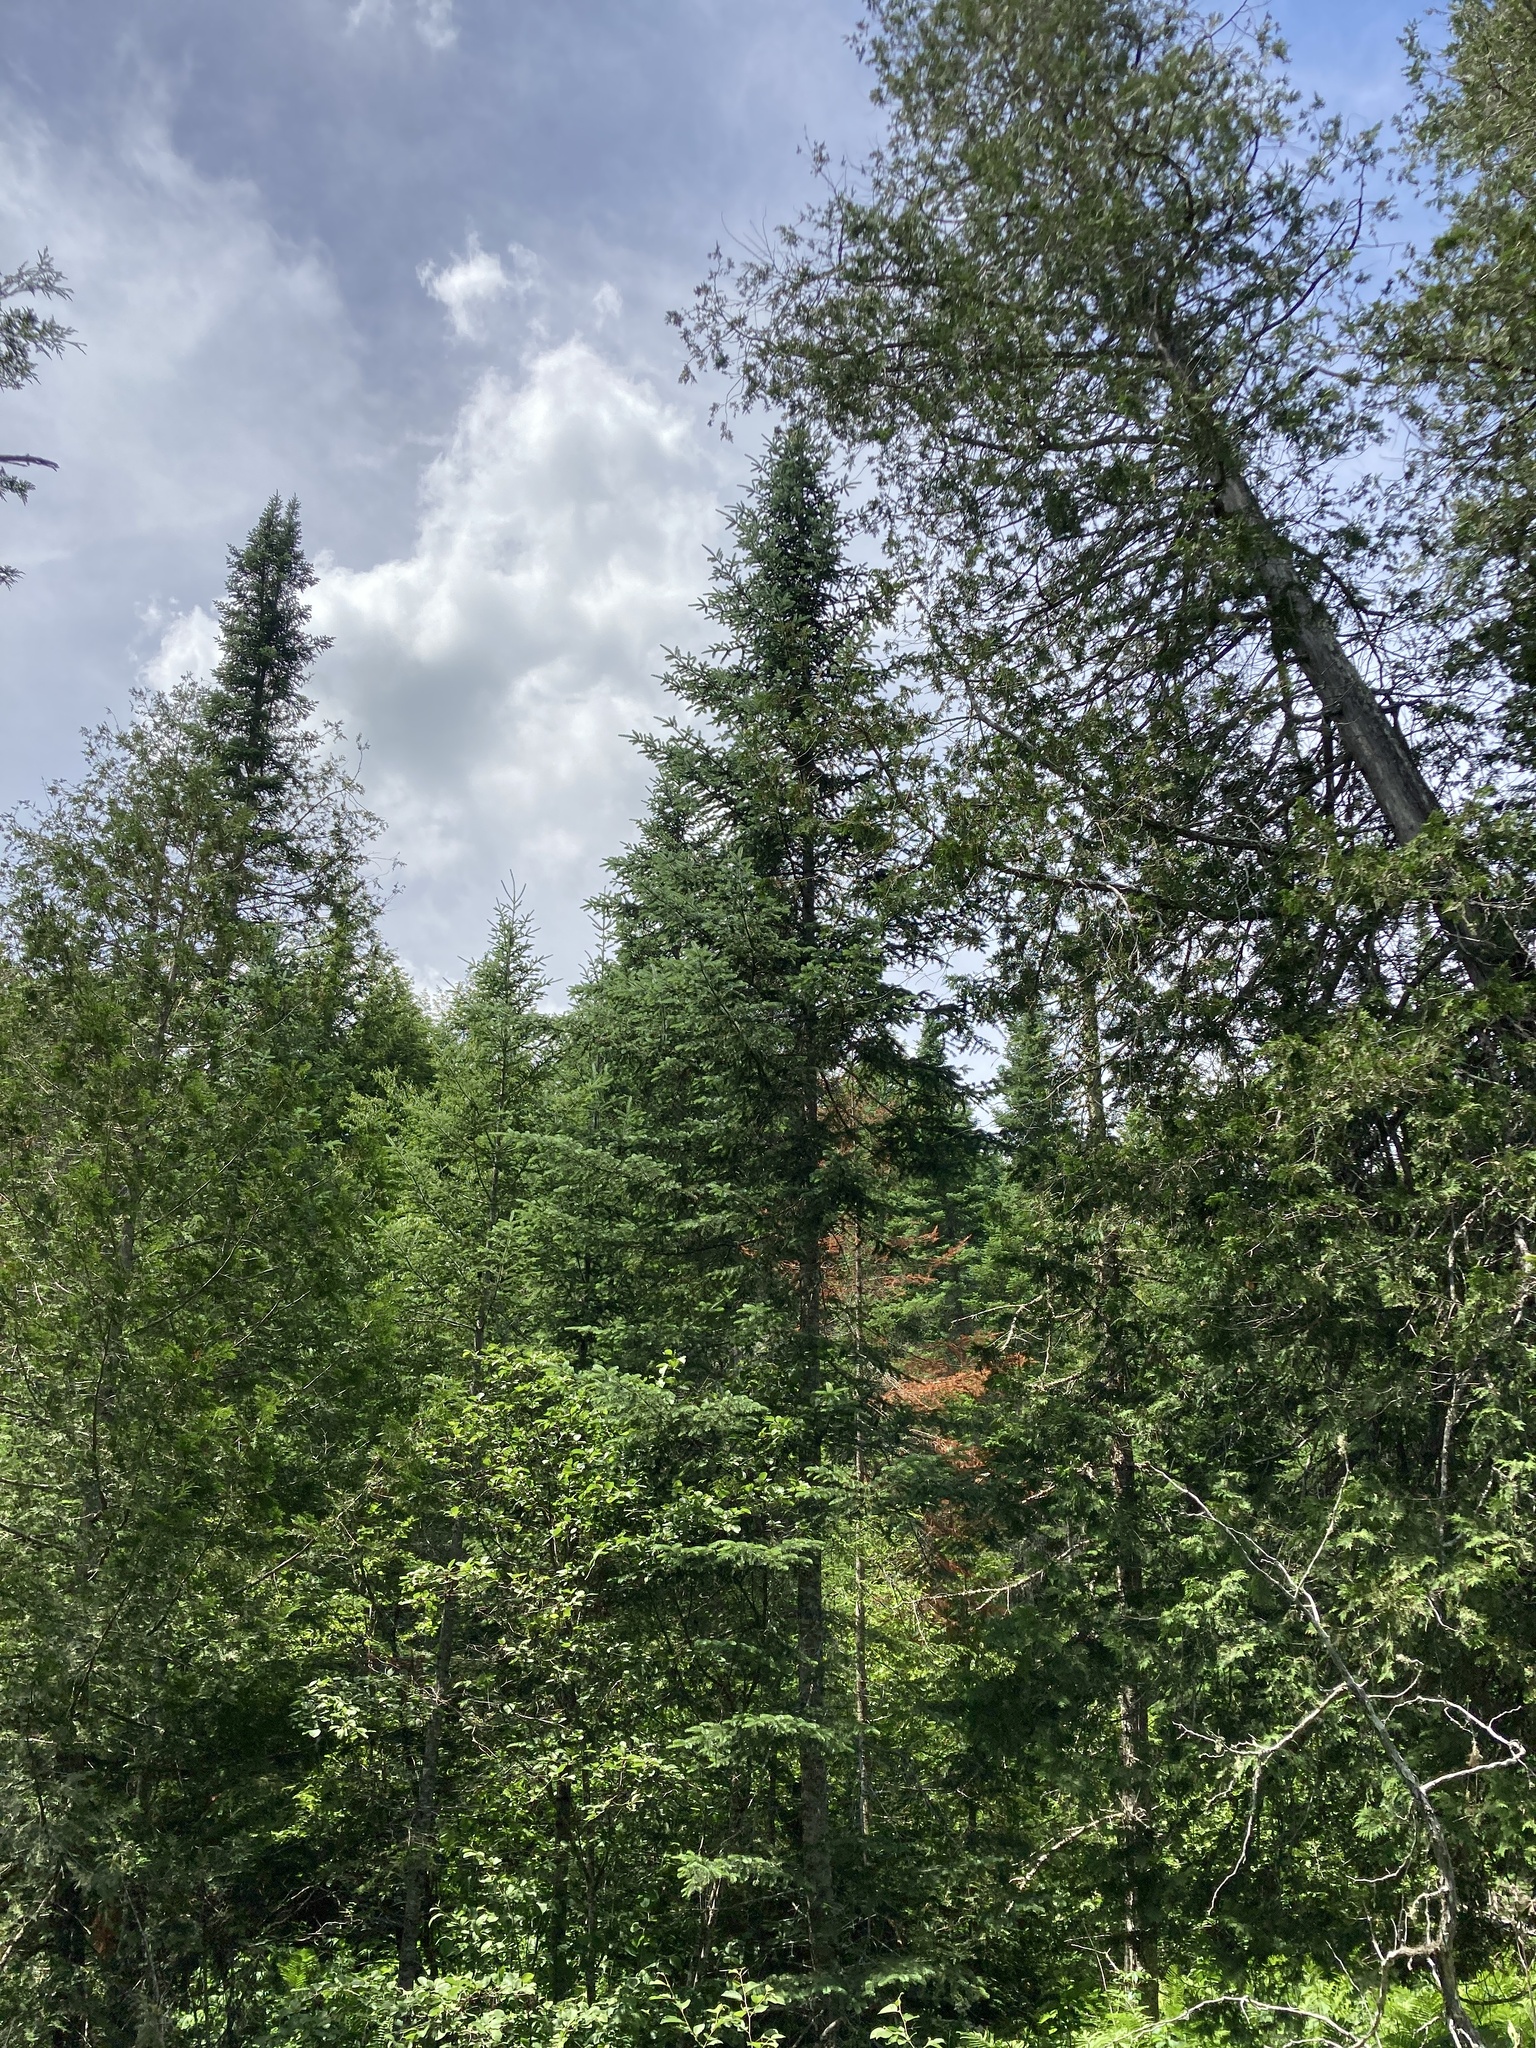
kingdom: Plantae
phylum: Tracheophyta
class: Pinopsida
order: Pinales
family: Pinaceae
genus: Abies
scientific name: Abies balsamea
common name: Balsam fir
